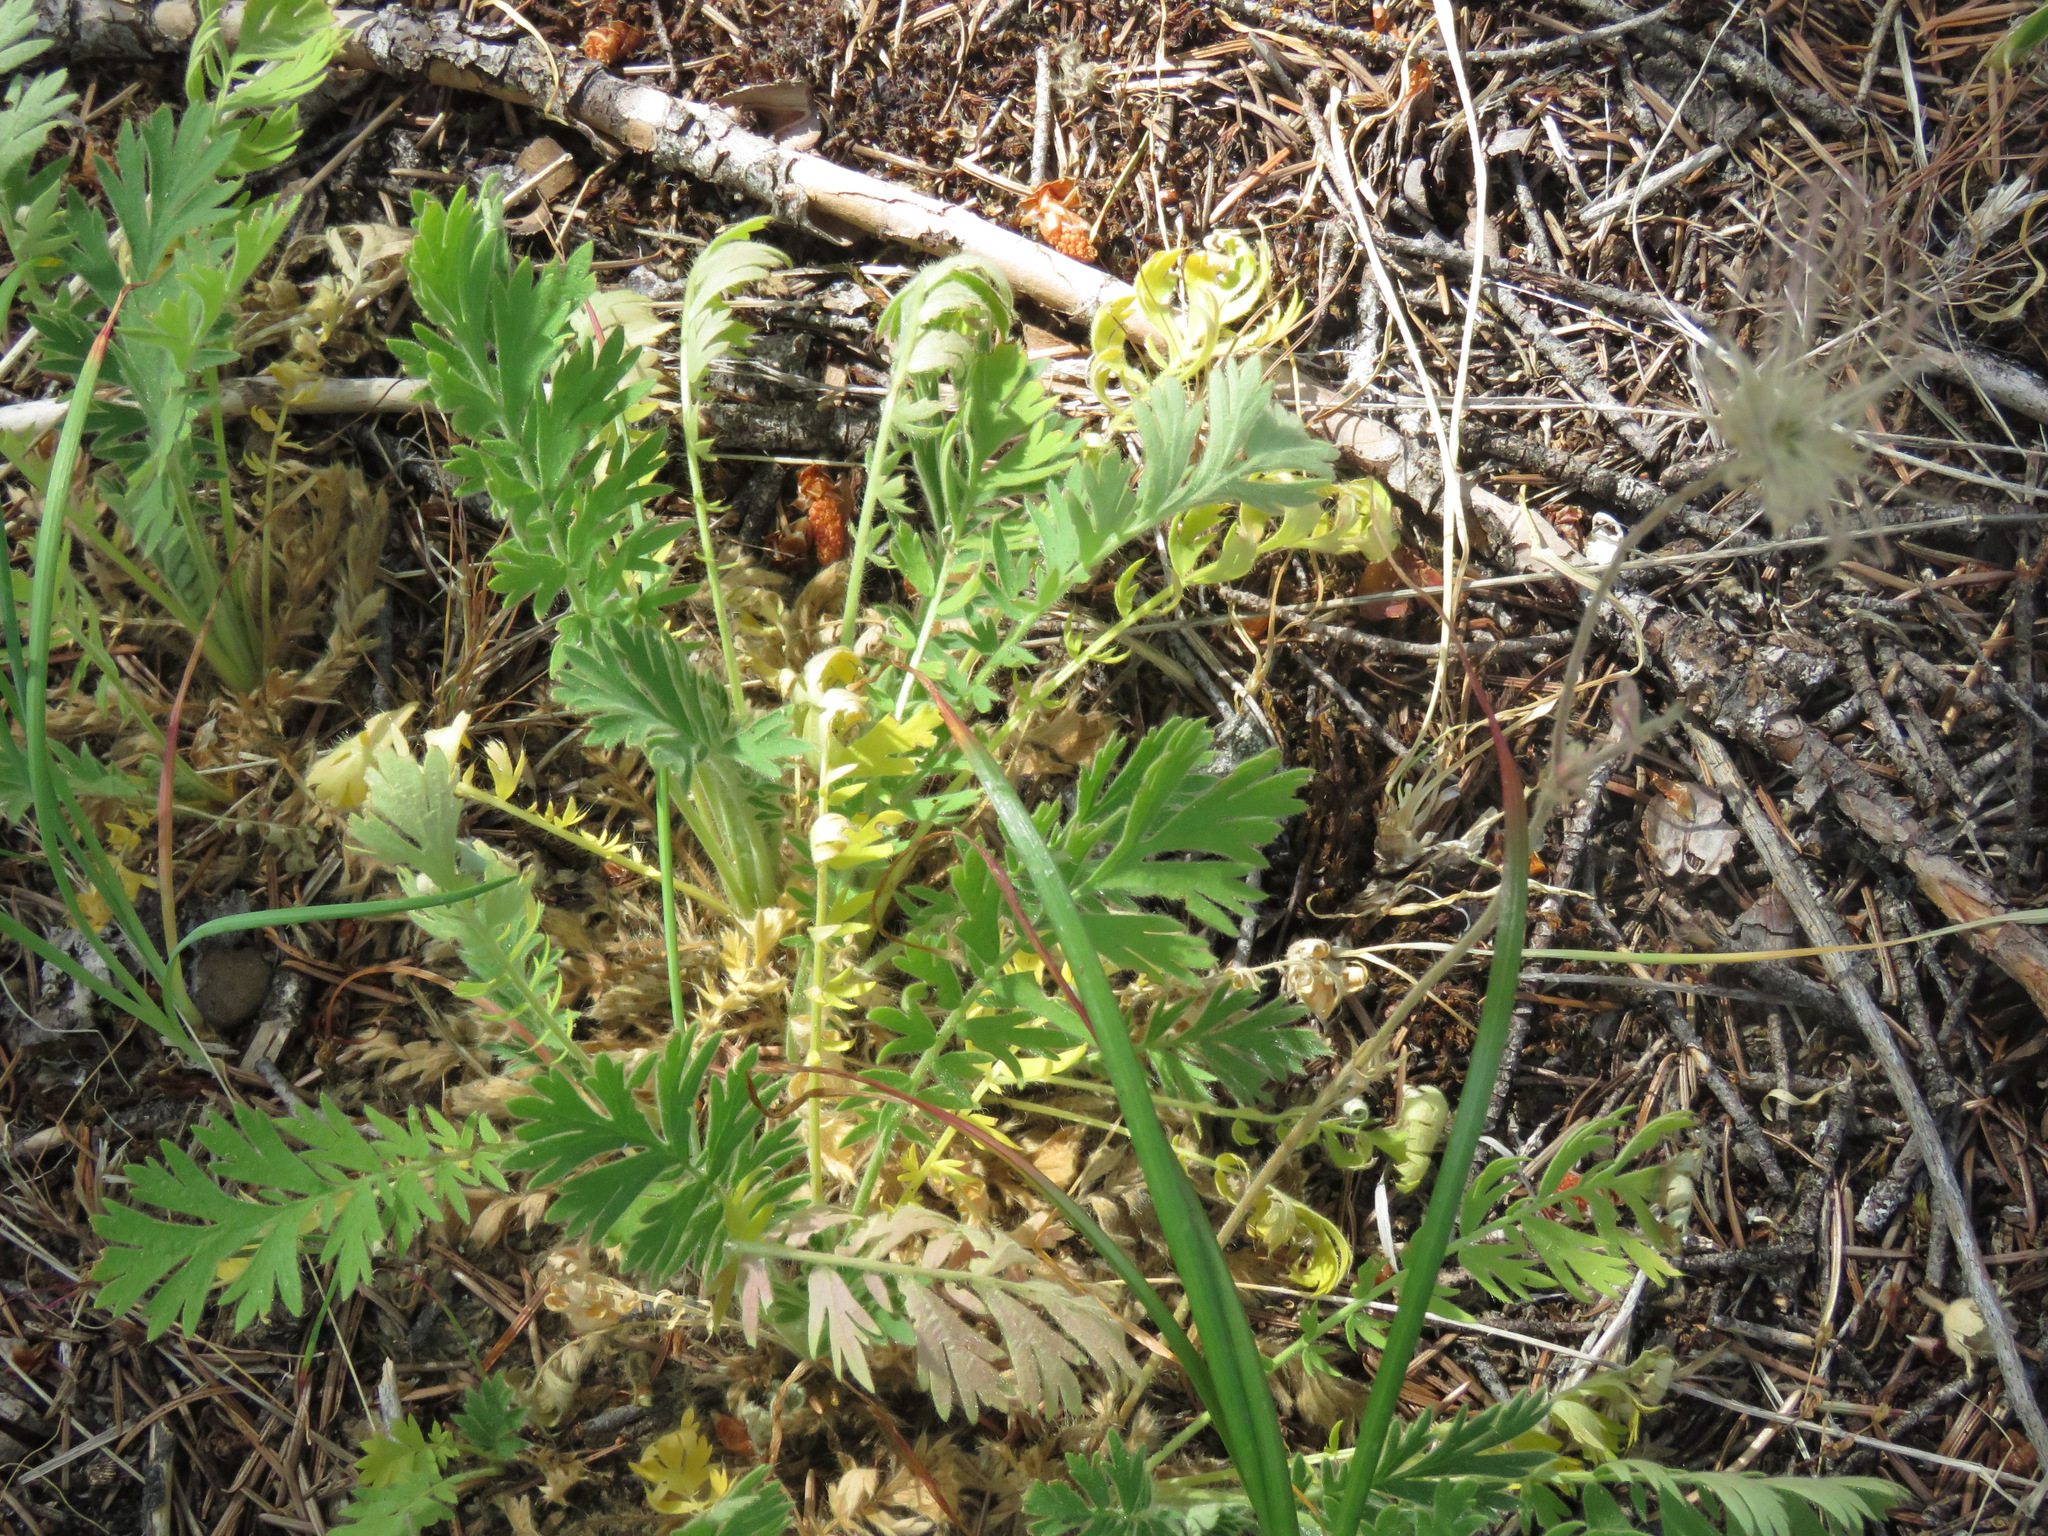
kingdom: Plantae
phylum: Tracheophyta
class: Magnoliopsida
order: Rosales
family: Rosaceae
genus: Geum
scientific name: Geum triflorum
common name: Old man's whiskers
